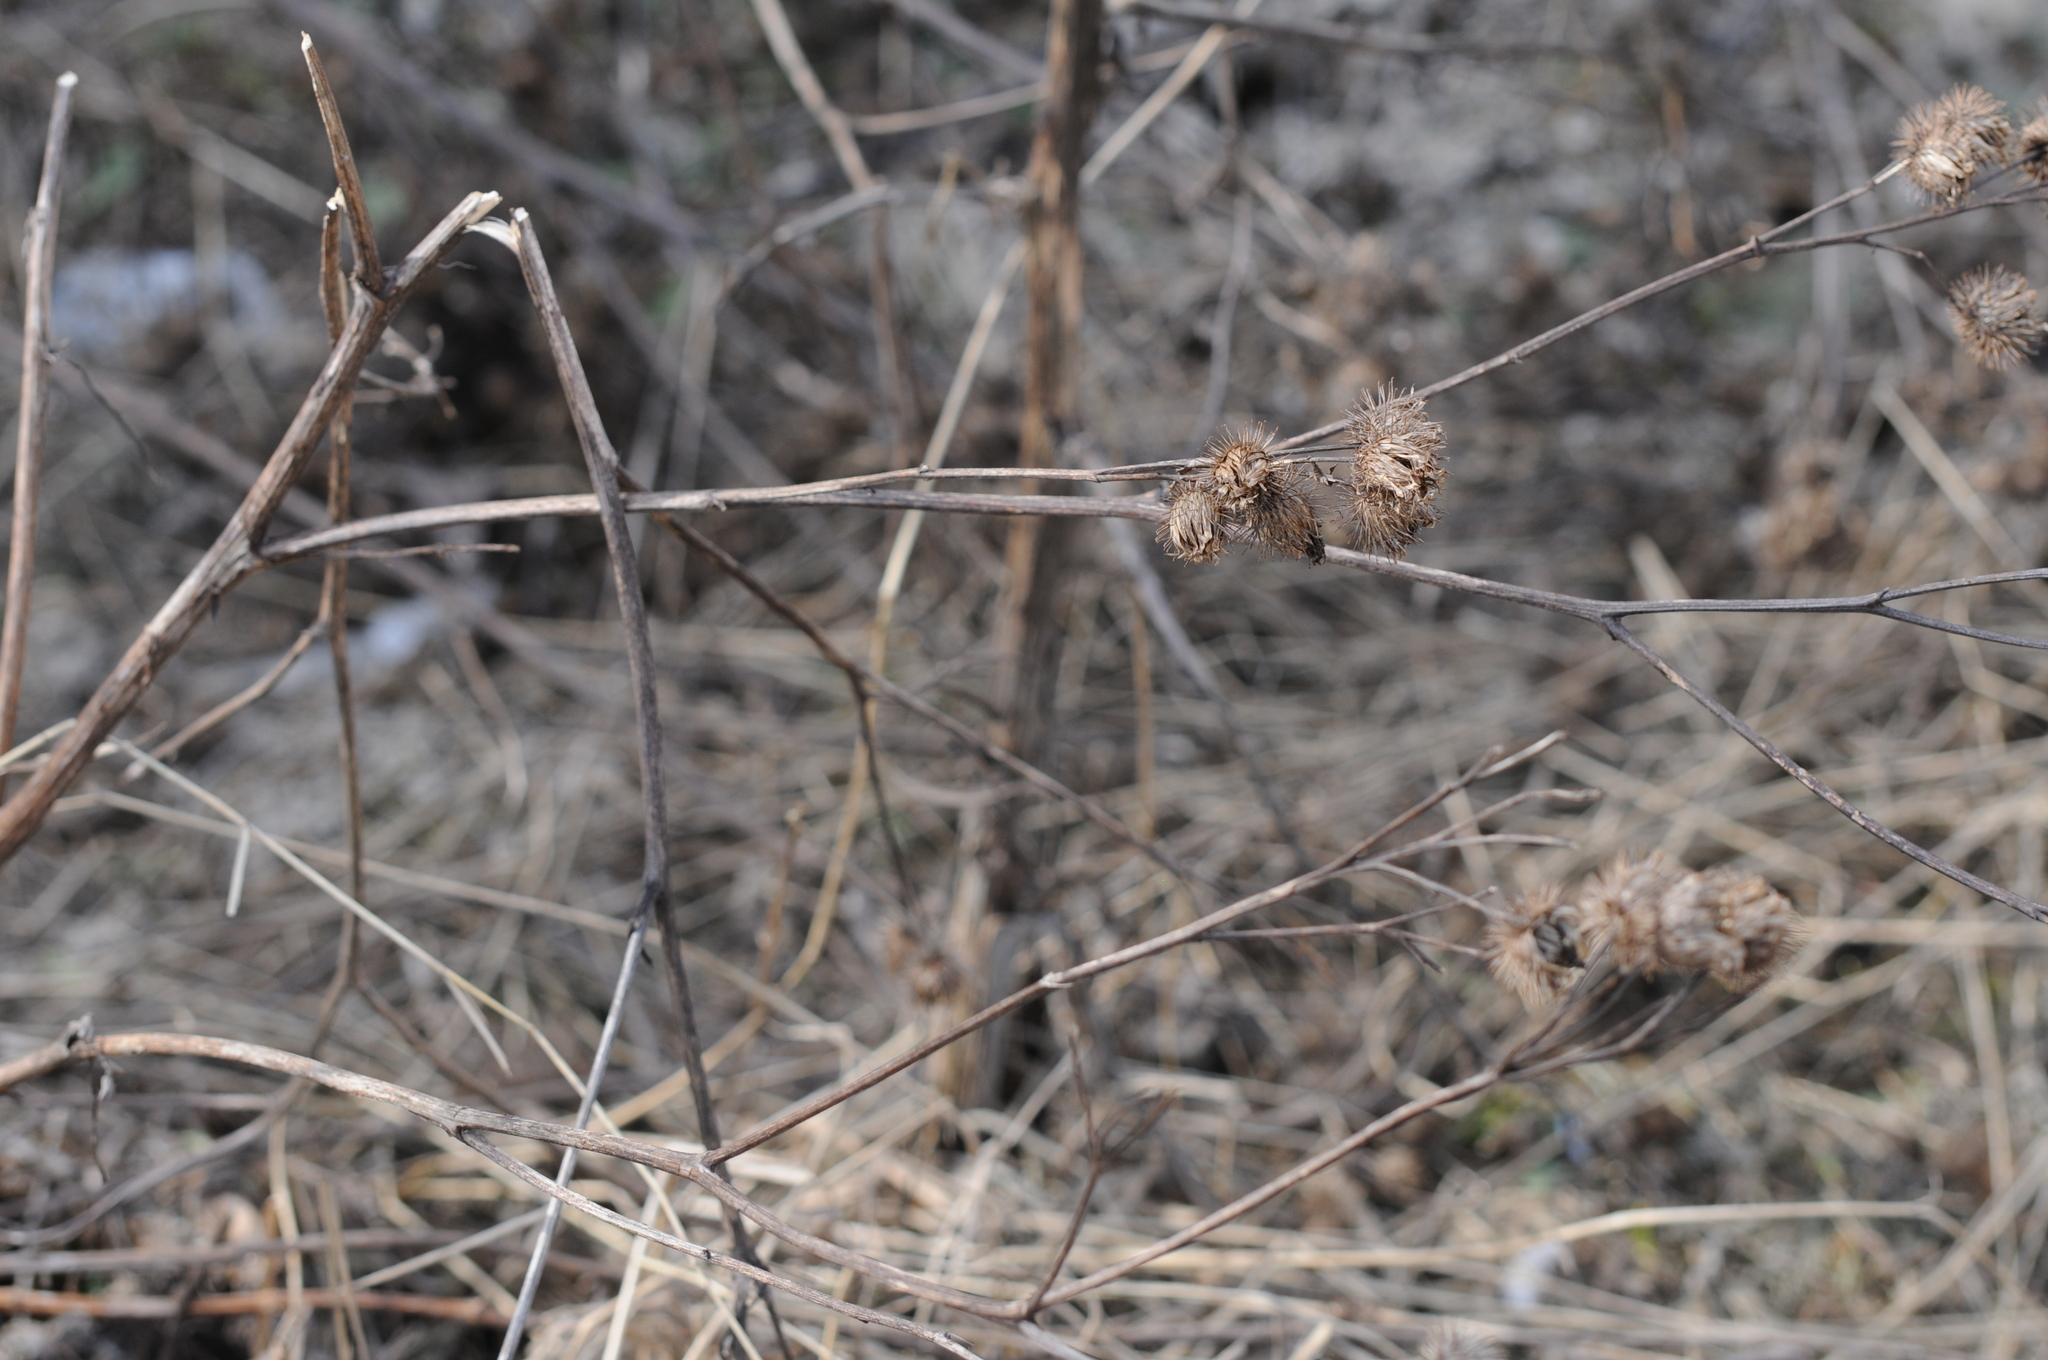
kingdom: Plantae
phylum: Tracheophyta
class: Magnoliopsida
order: Asterales
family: Asteraceae
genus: Arctium
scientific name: Arctium
